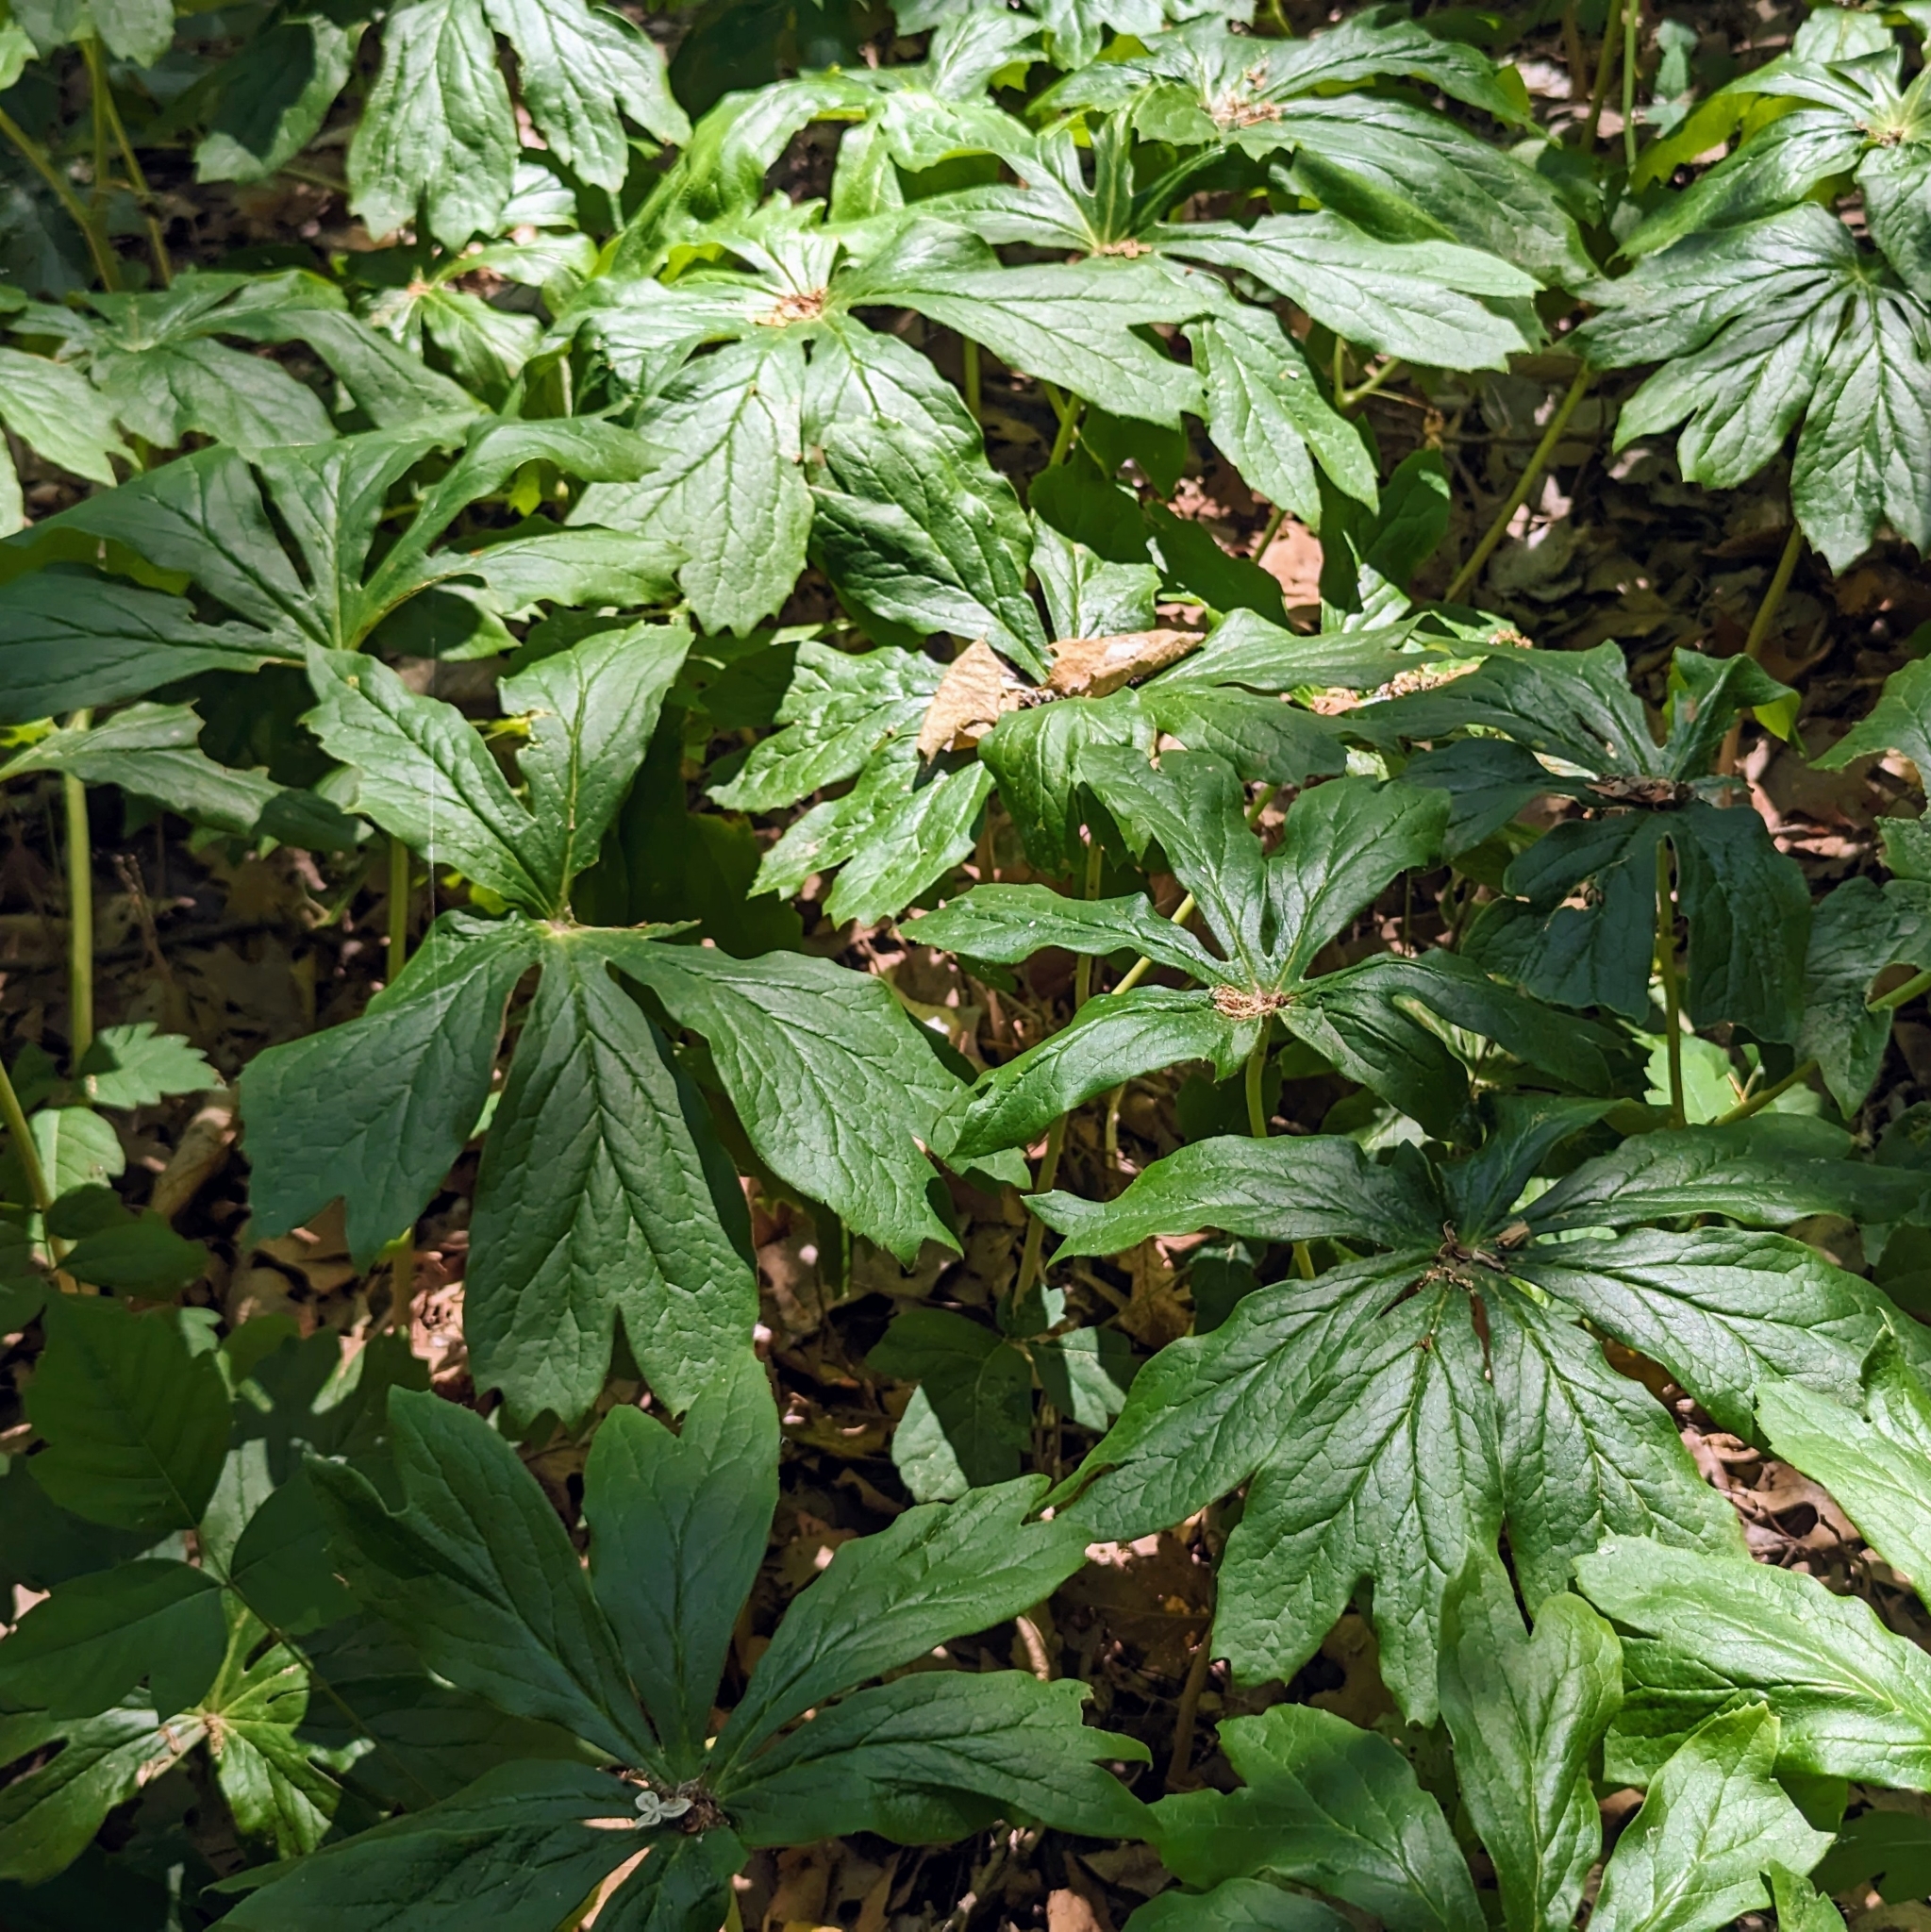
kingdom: Plantae
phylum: Tracheophyta
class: Magnoliopsida
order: Ranunculales
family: Berberidaceae
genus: Podophyllum
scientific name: Podophyllum peltatum
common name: Wild mandrake
